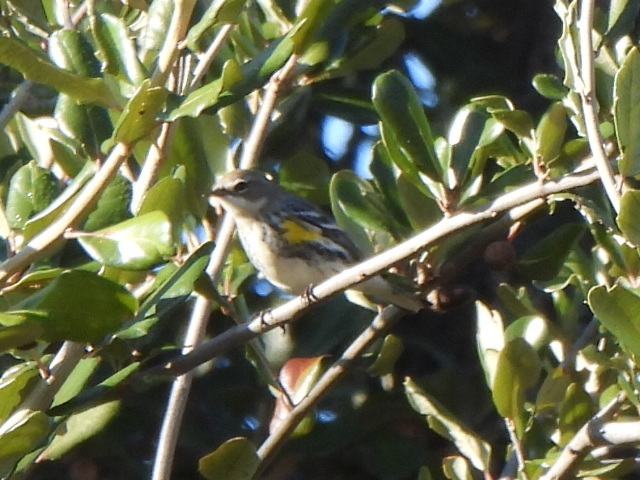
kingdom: Animalia
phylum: Chordata
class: Aves
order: Passeriformes
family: Parulidae
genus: Setophaga
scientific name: Setophaga coronata
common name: Myrtle warbler
